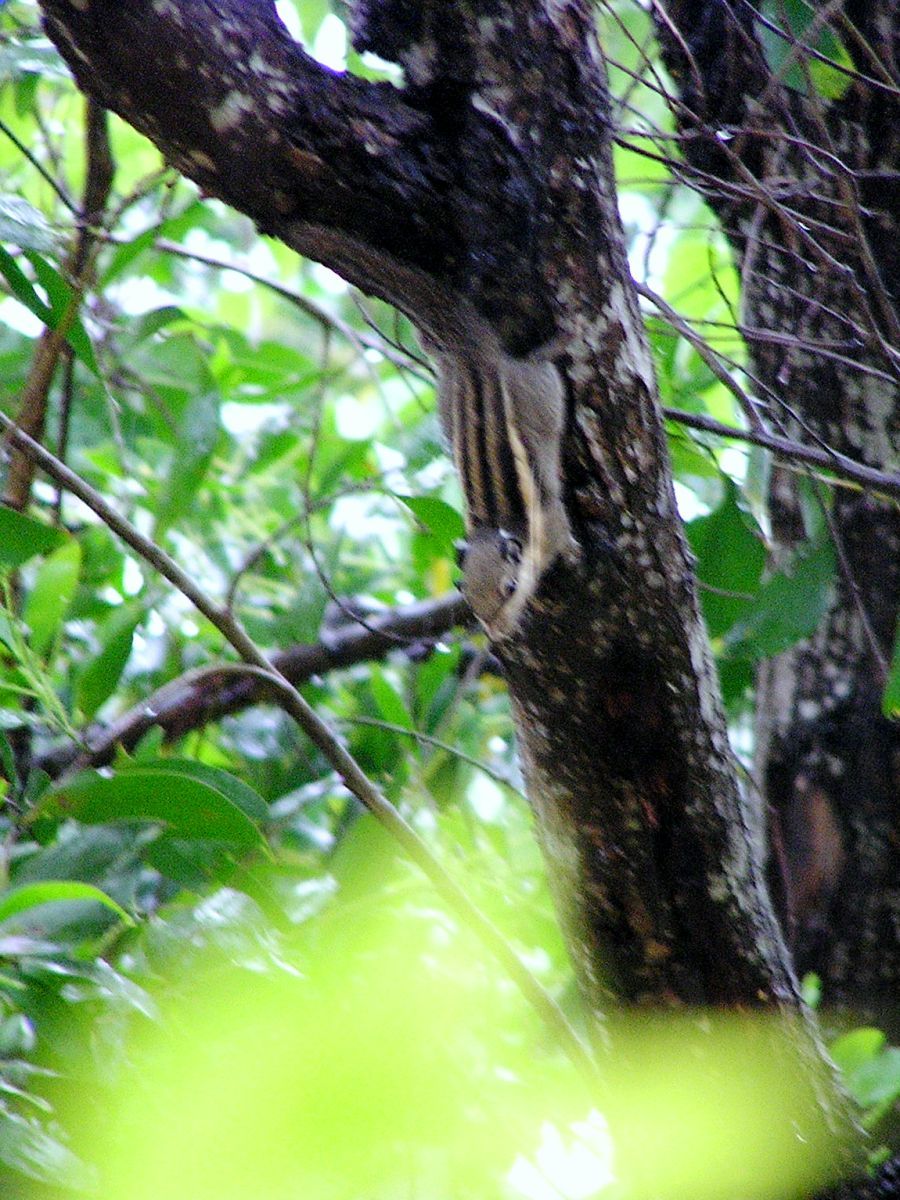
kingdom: Animalia
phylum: Chordata
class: Mammalia
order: Rodentia
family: Sciuridae
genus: Tamiops
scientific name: Tamiops mcclellandii
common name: Himalayan striped squirrel
